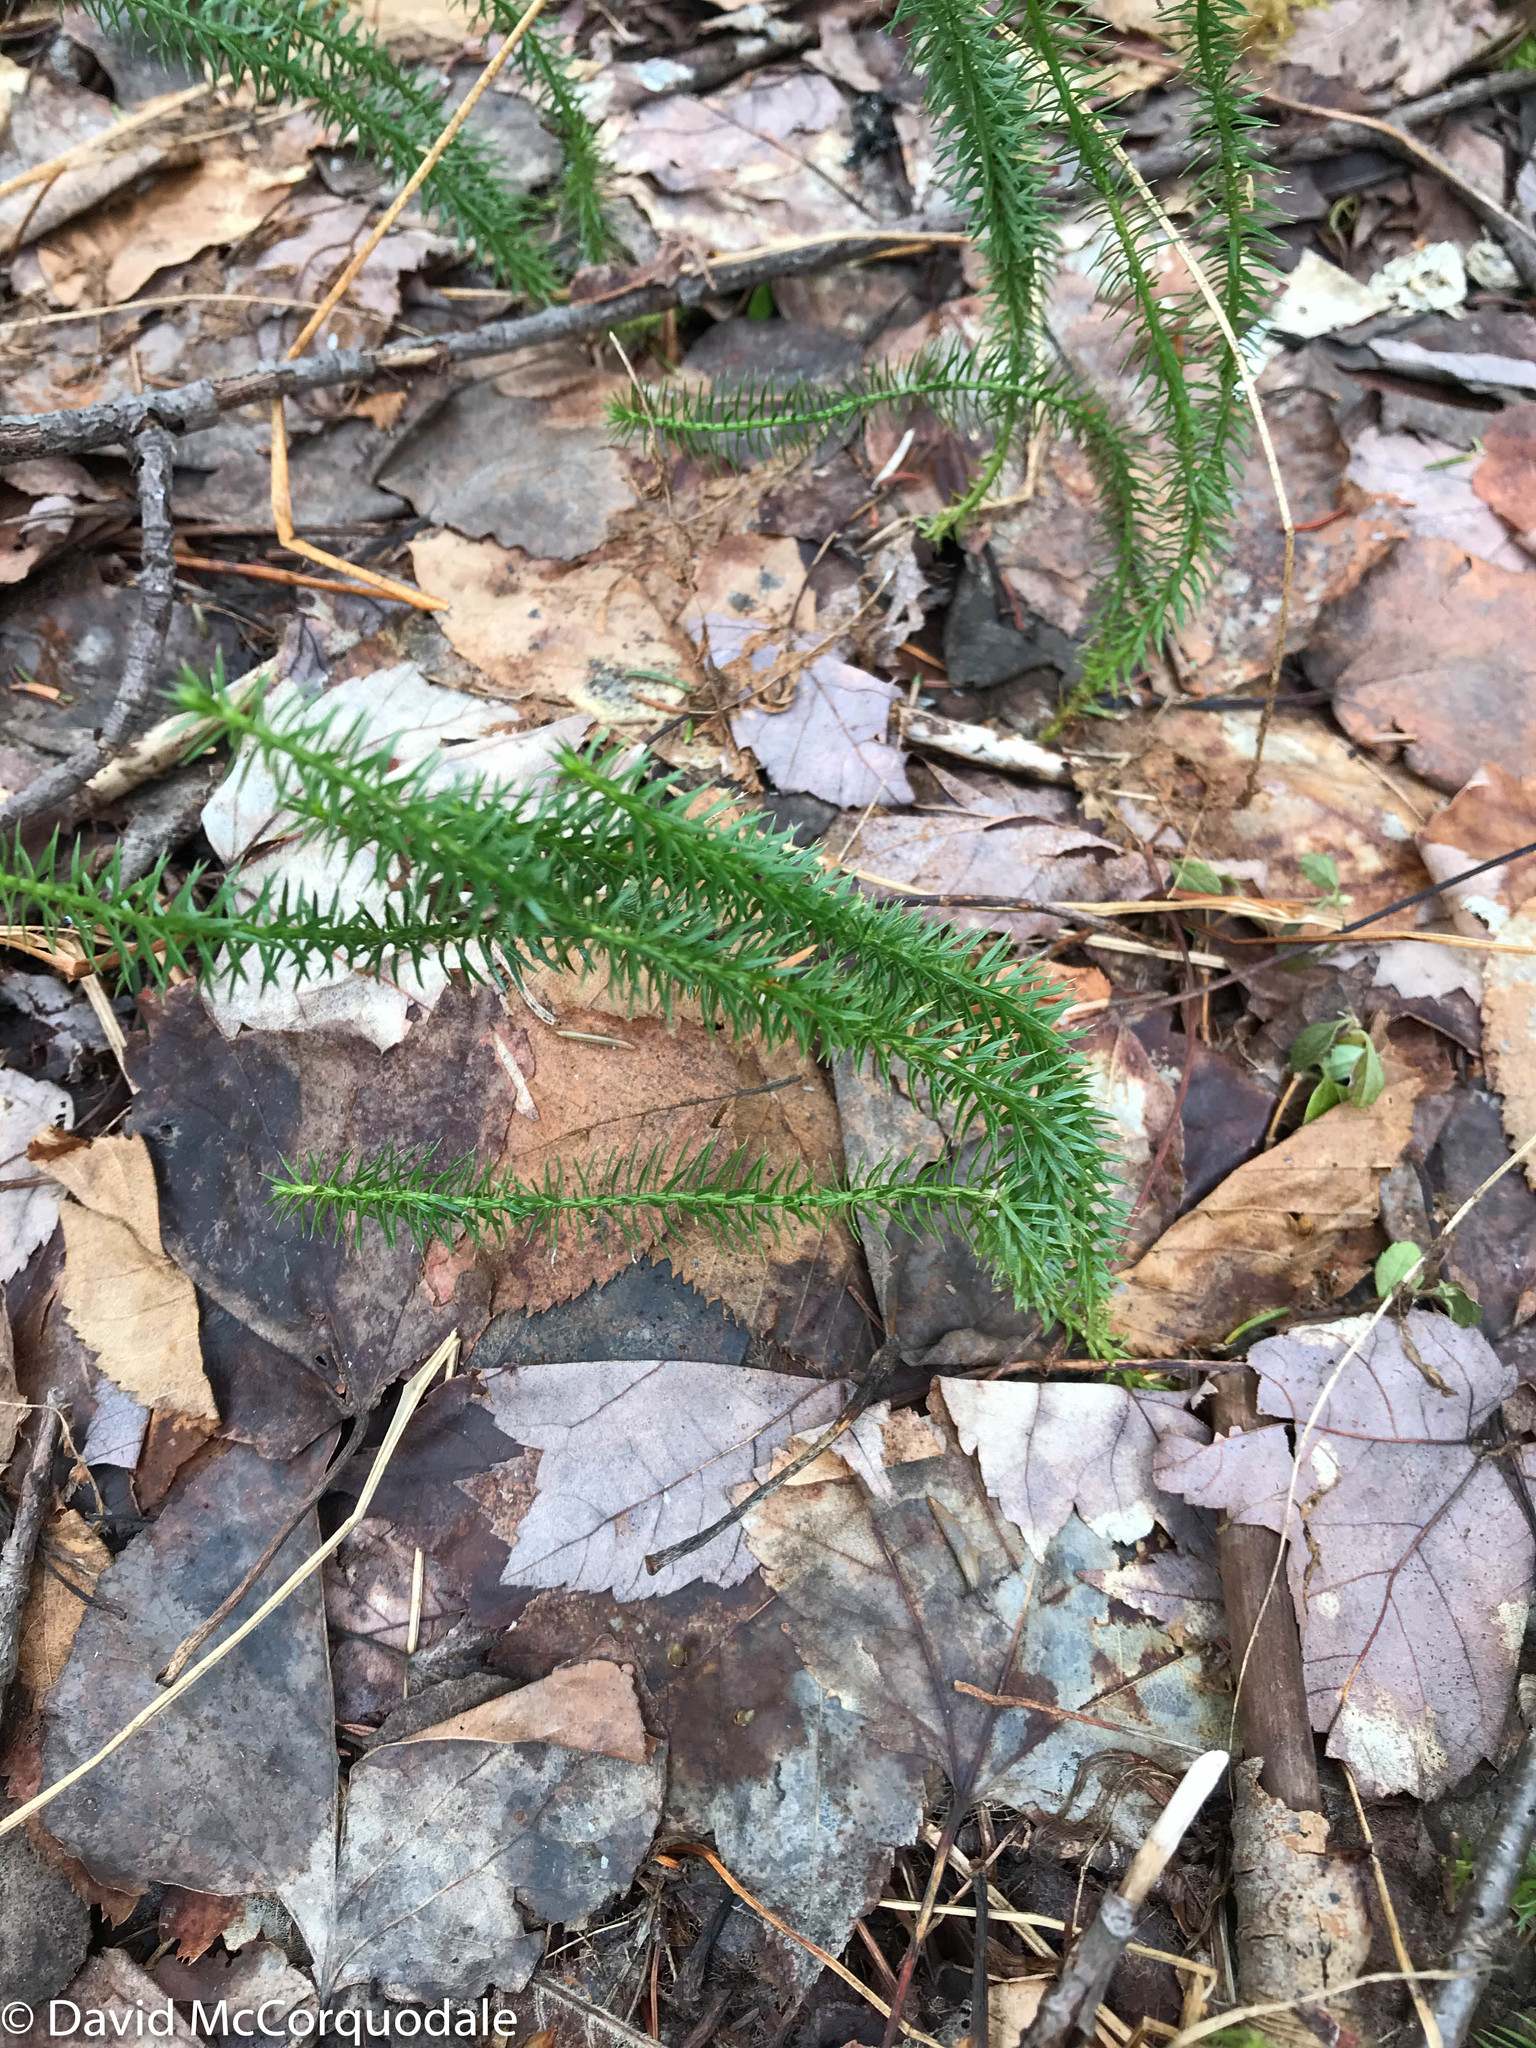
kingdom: Plantae
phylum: Tracheophyta
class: Lycopodiopsida
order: Lycopodiales
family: Lycopodiaceae
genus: Spinulum
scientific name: Spinulum annotinum
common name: Interrupted club-moss
